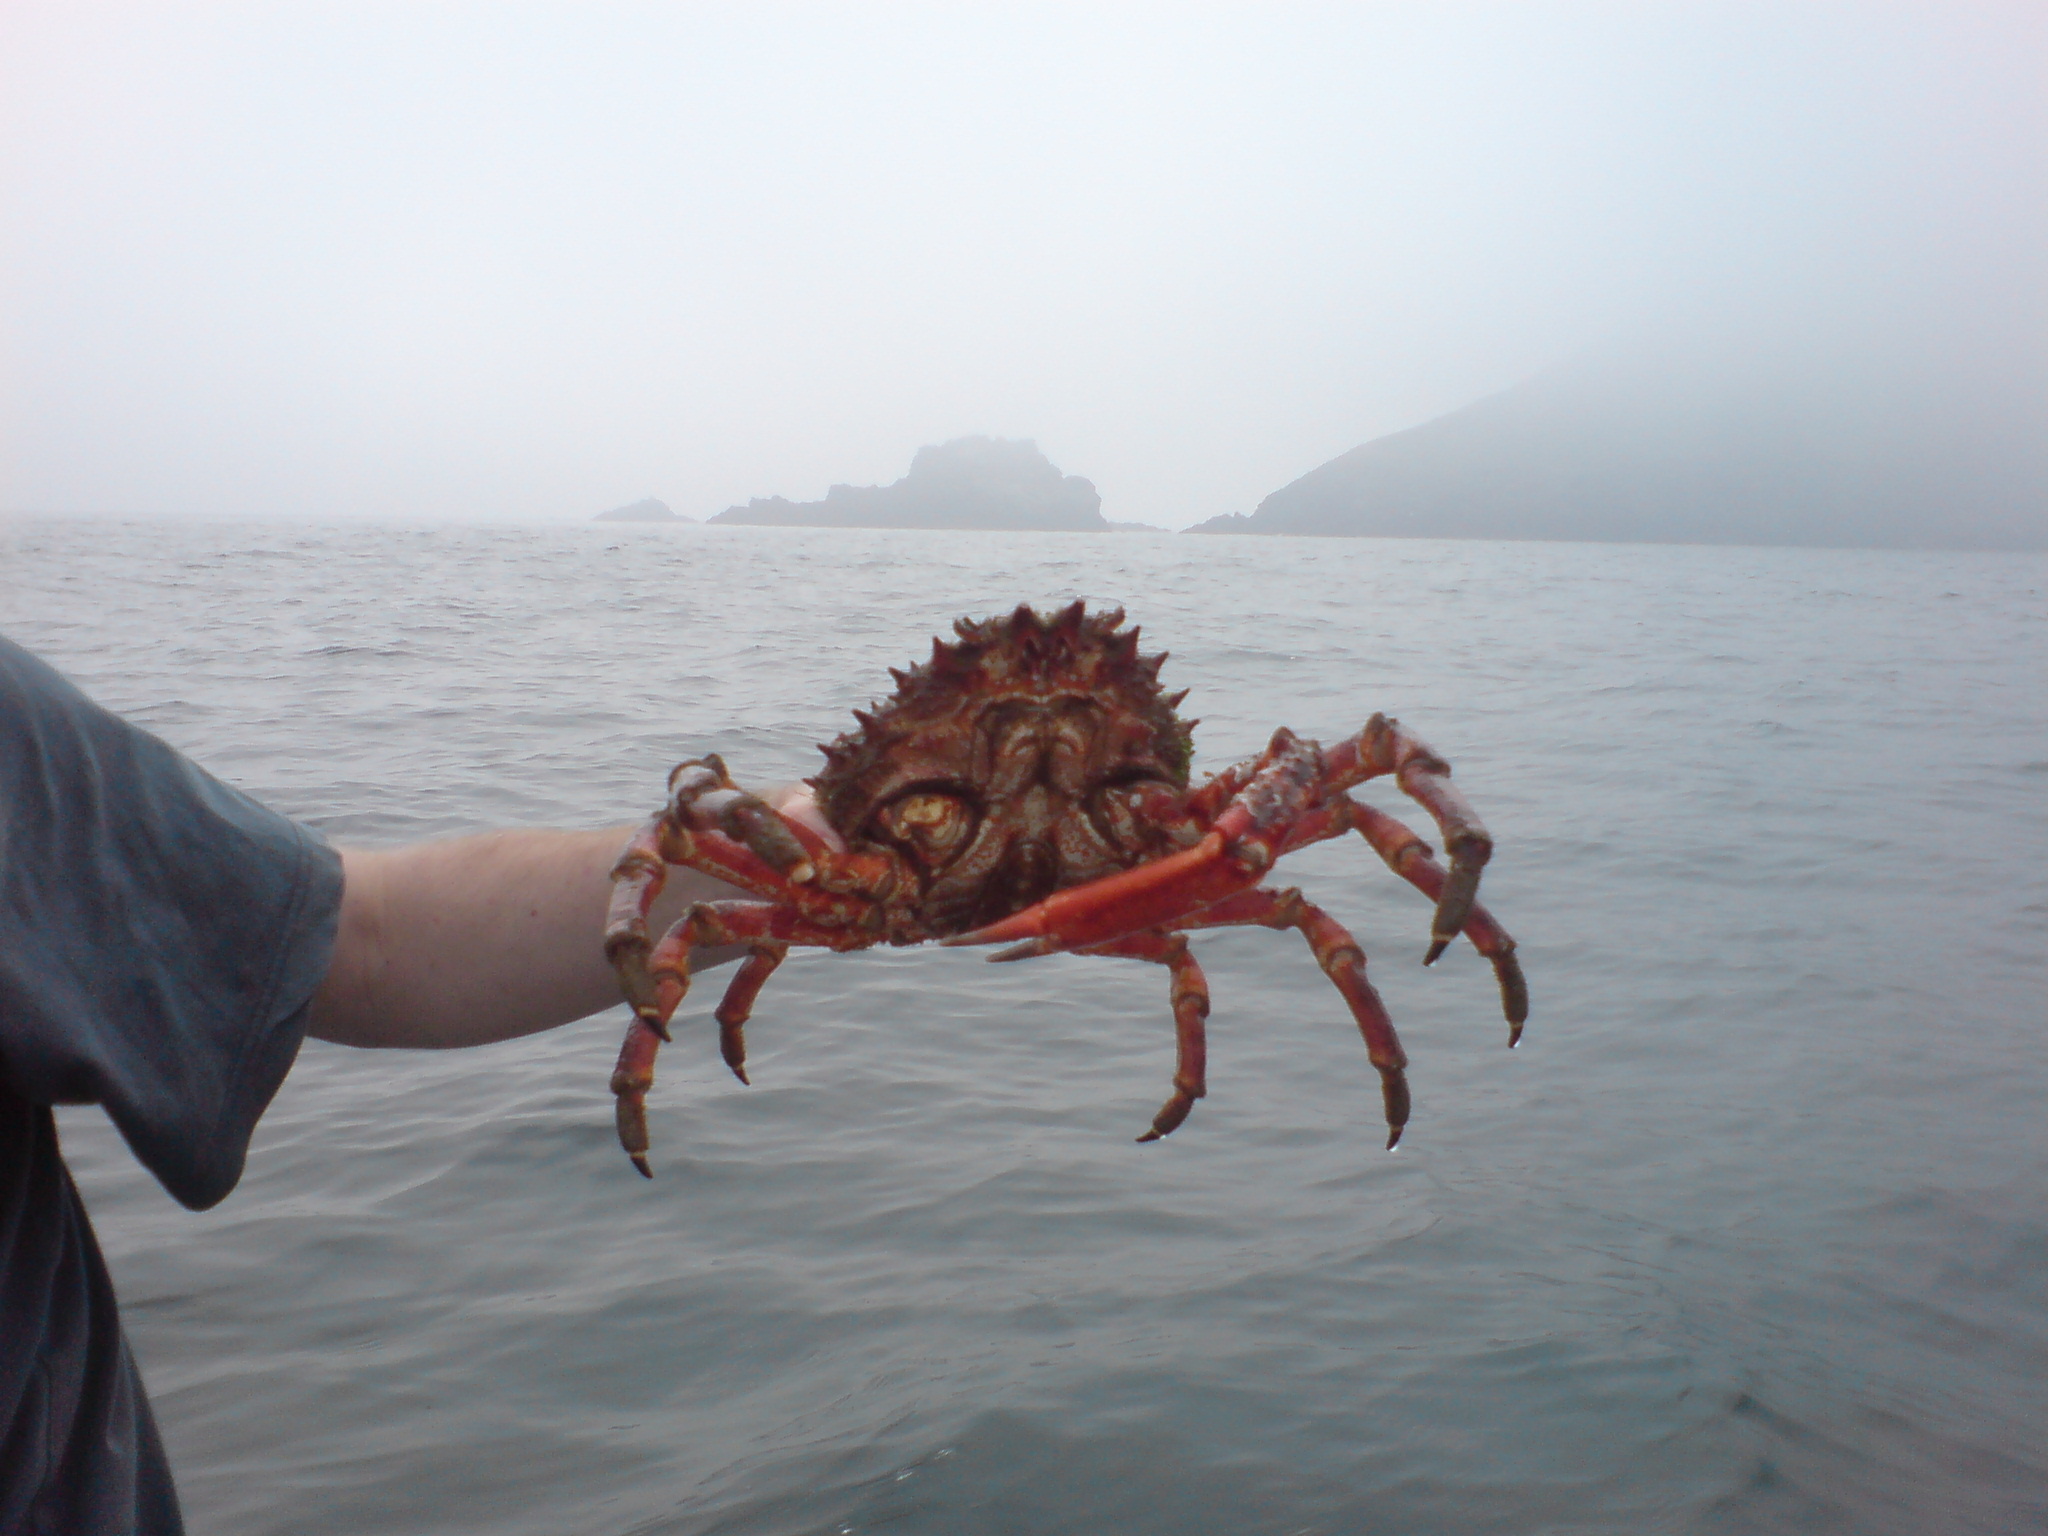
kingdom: Animalia
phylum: Arthropoda
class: Malacostraca
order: Decapoda
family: Majidae
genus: Maja
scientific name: Maja brachydactyla
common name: Common spider crab
